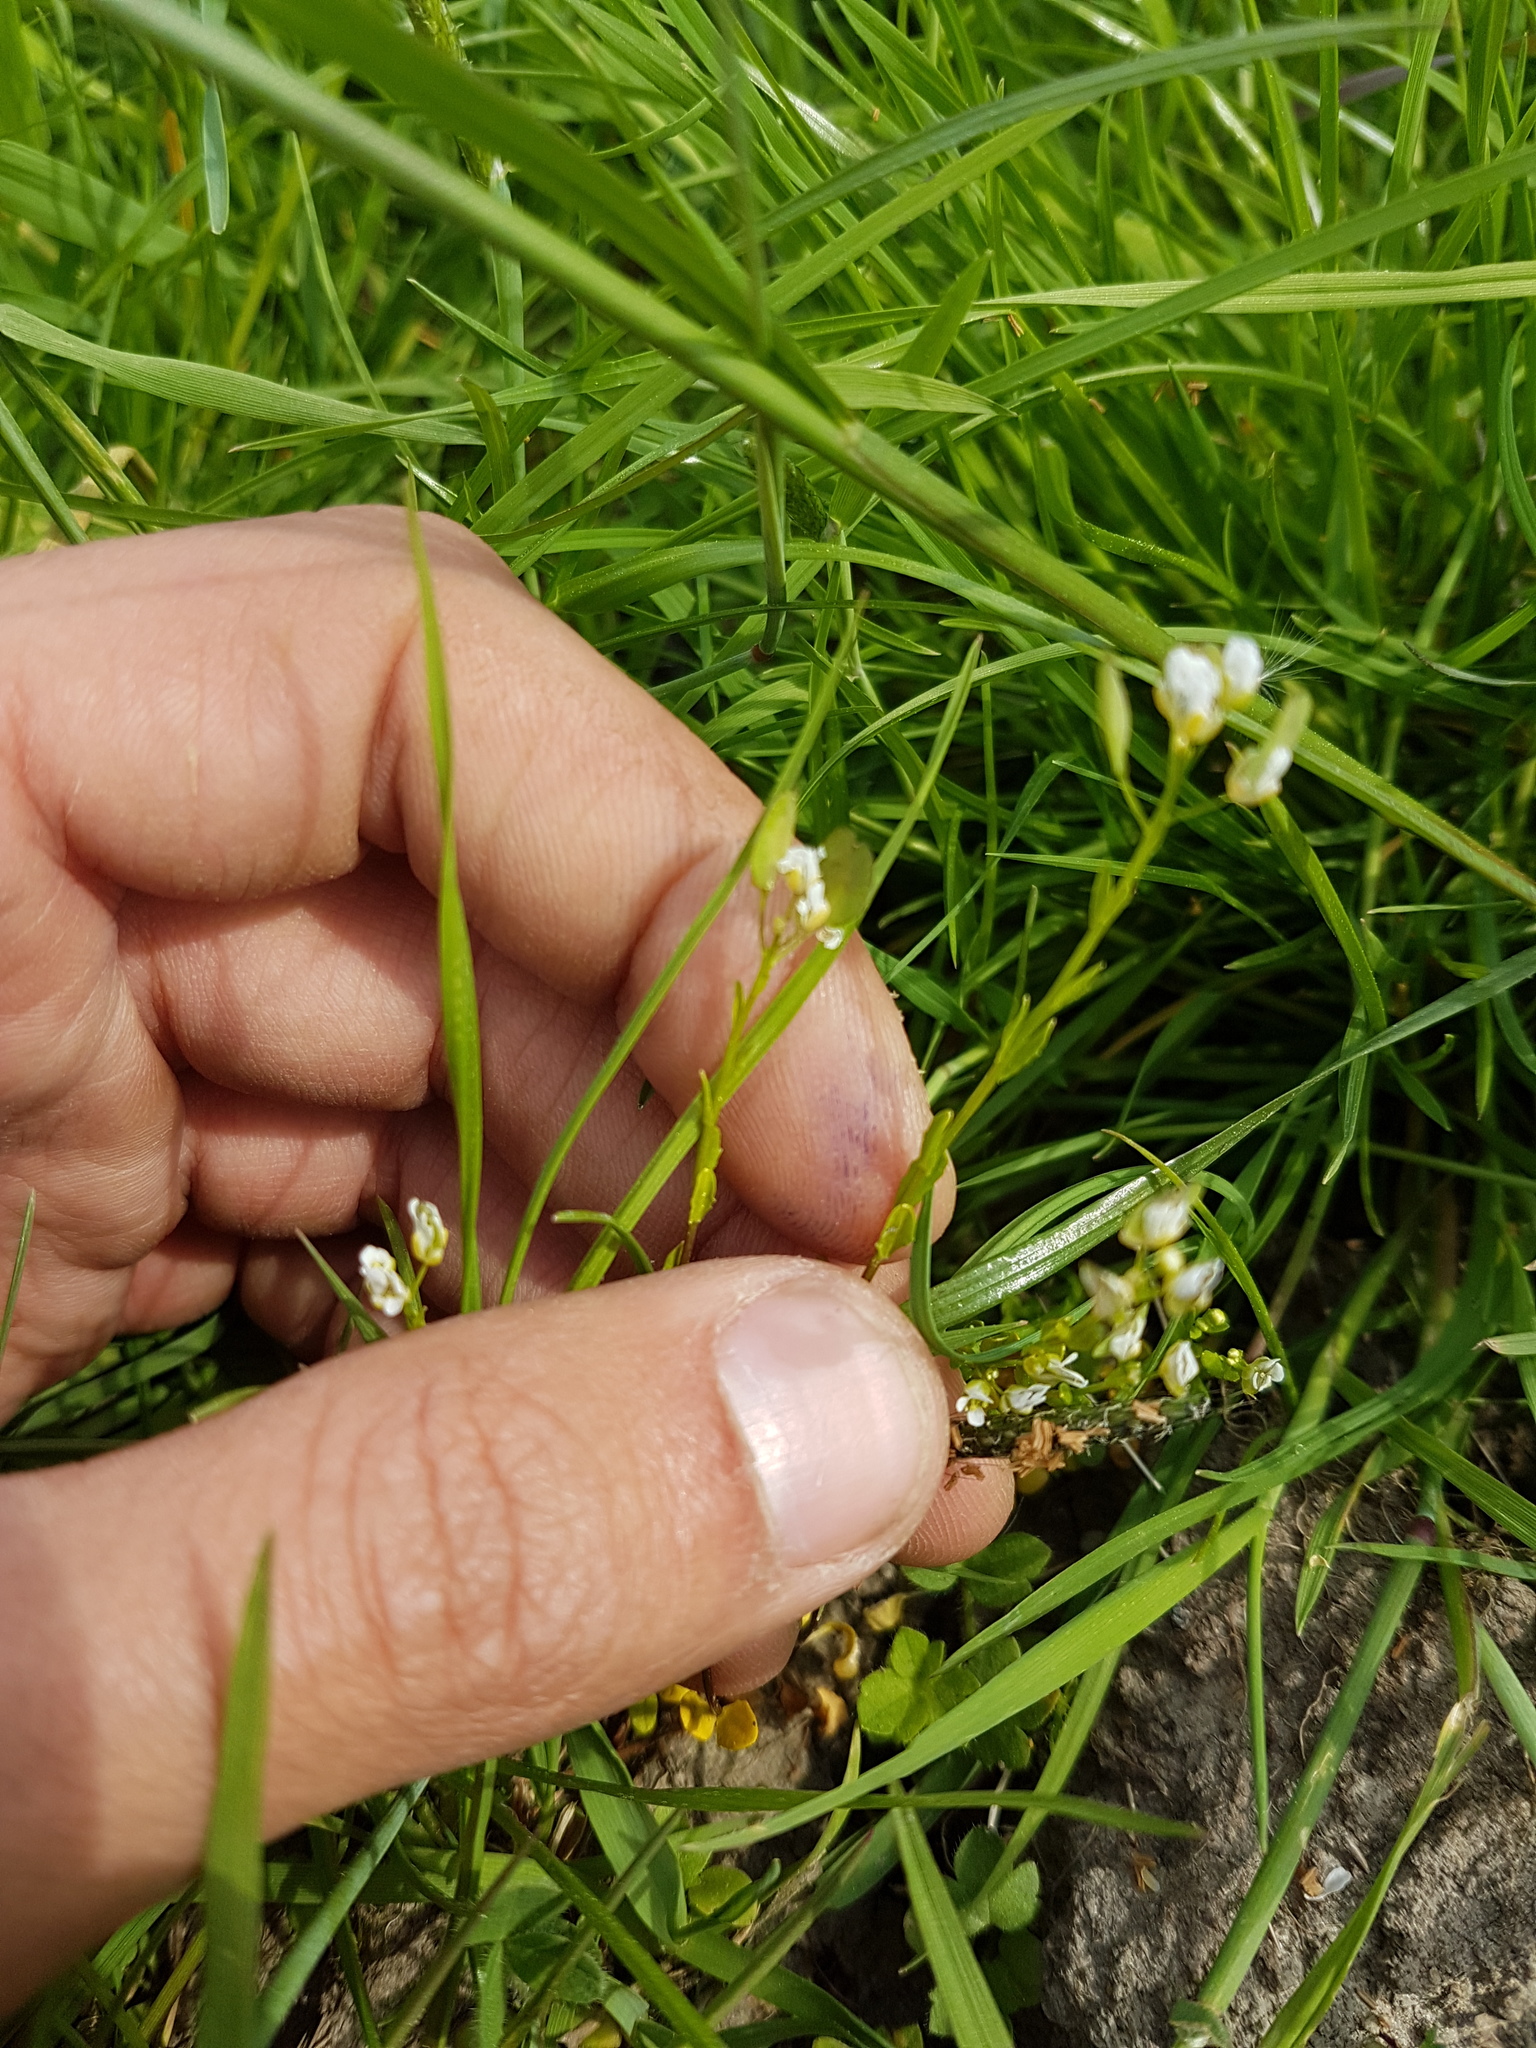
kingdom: Plantae
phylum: Tracheophyta
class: Magnoliopsida
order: Brassicales
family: Brassicaceae
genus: Thlaspi
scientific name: Thlaspi arvense
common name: Field pennycress
